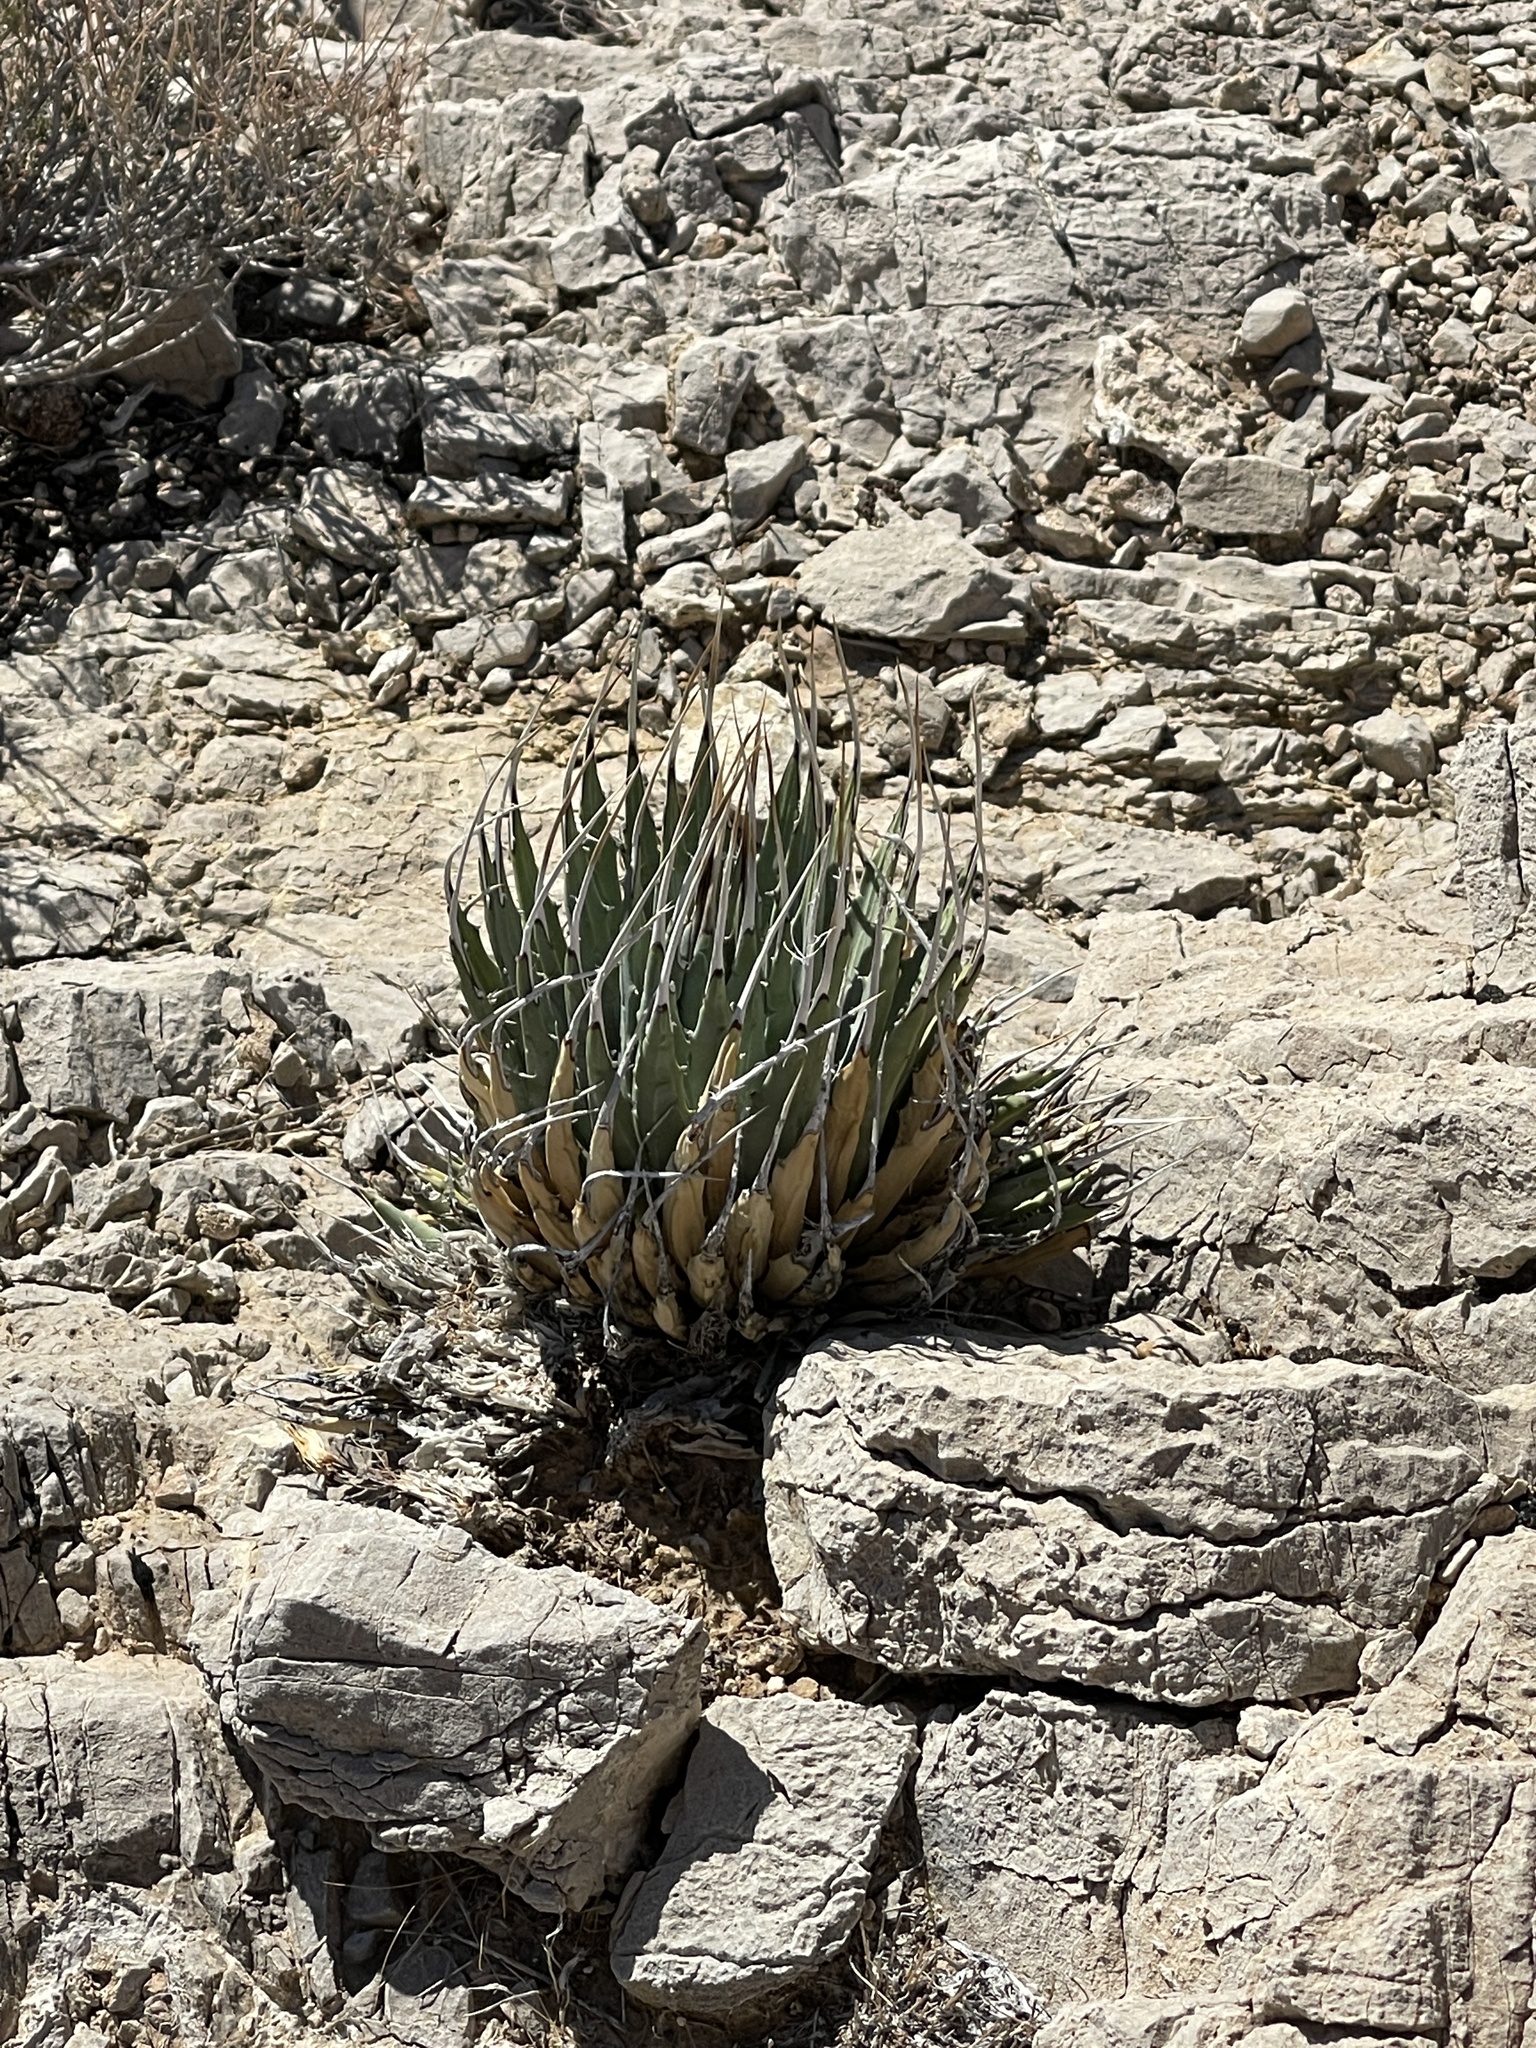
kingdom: Plantae
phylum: Tracheophyta
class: Liliopsida
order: Asparagales
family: Asparagaceae
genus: Agave
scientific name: Agave utahensis
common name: Utah agave
